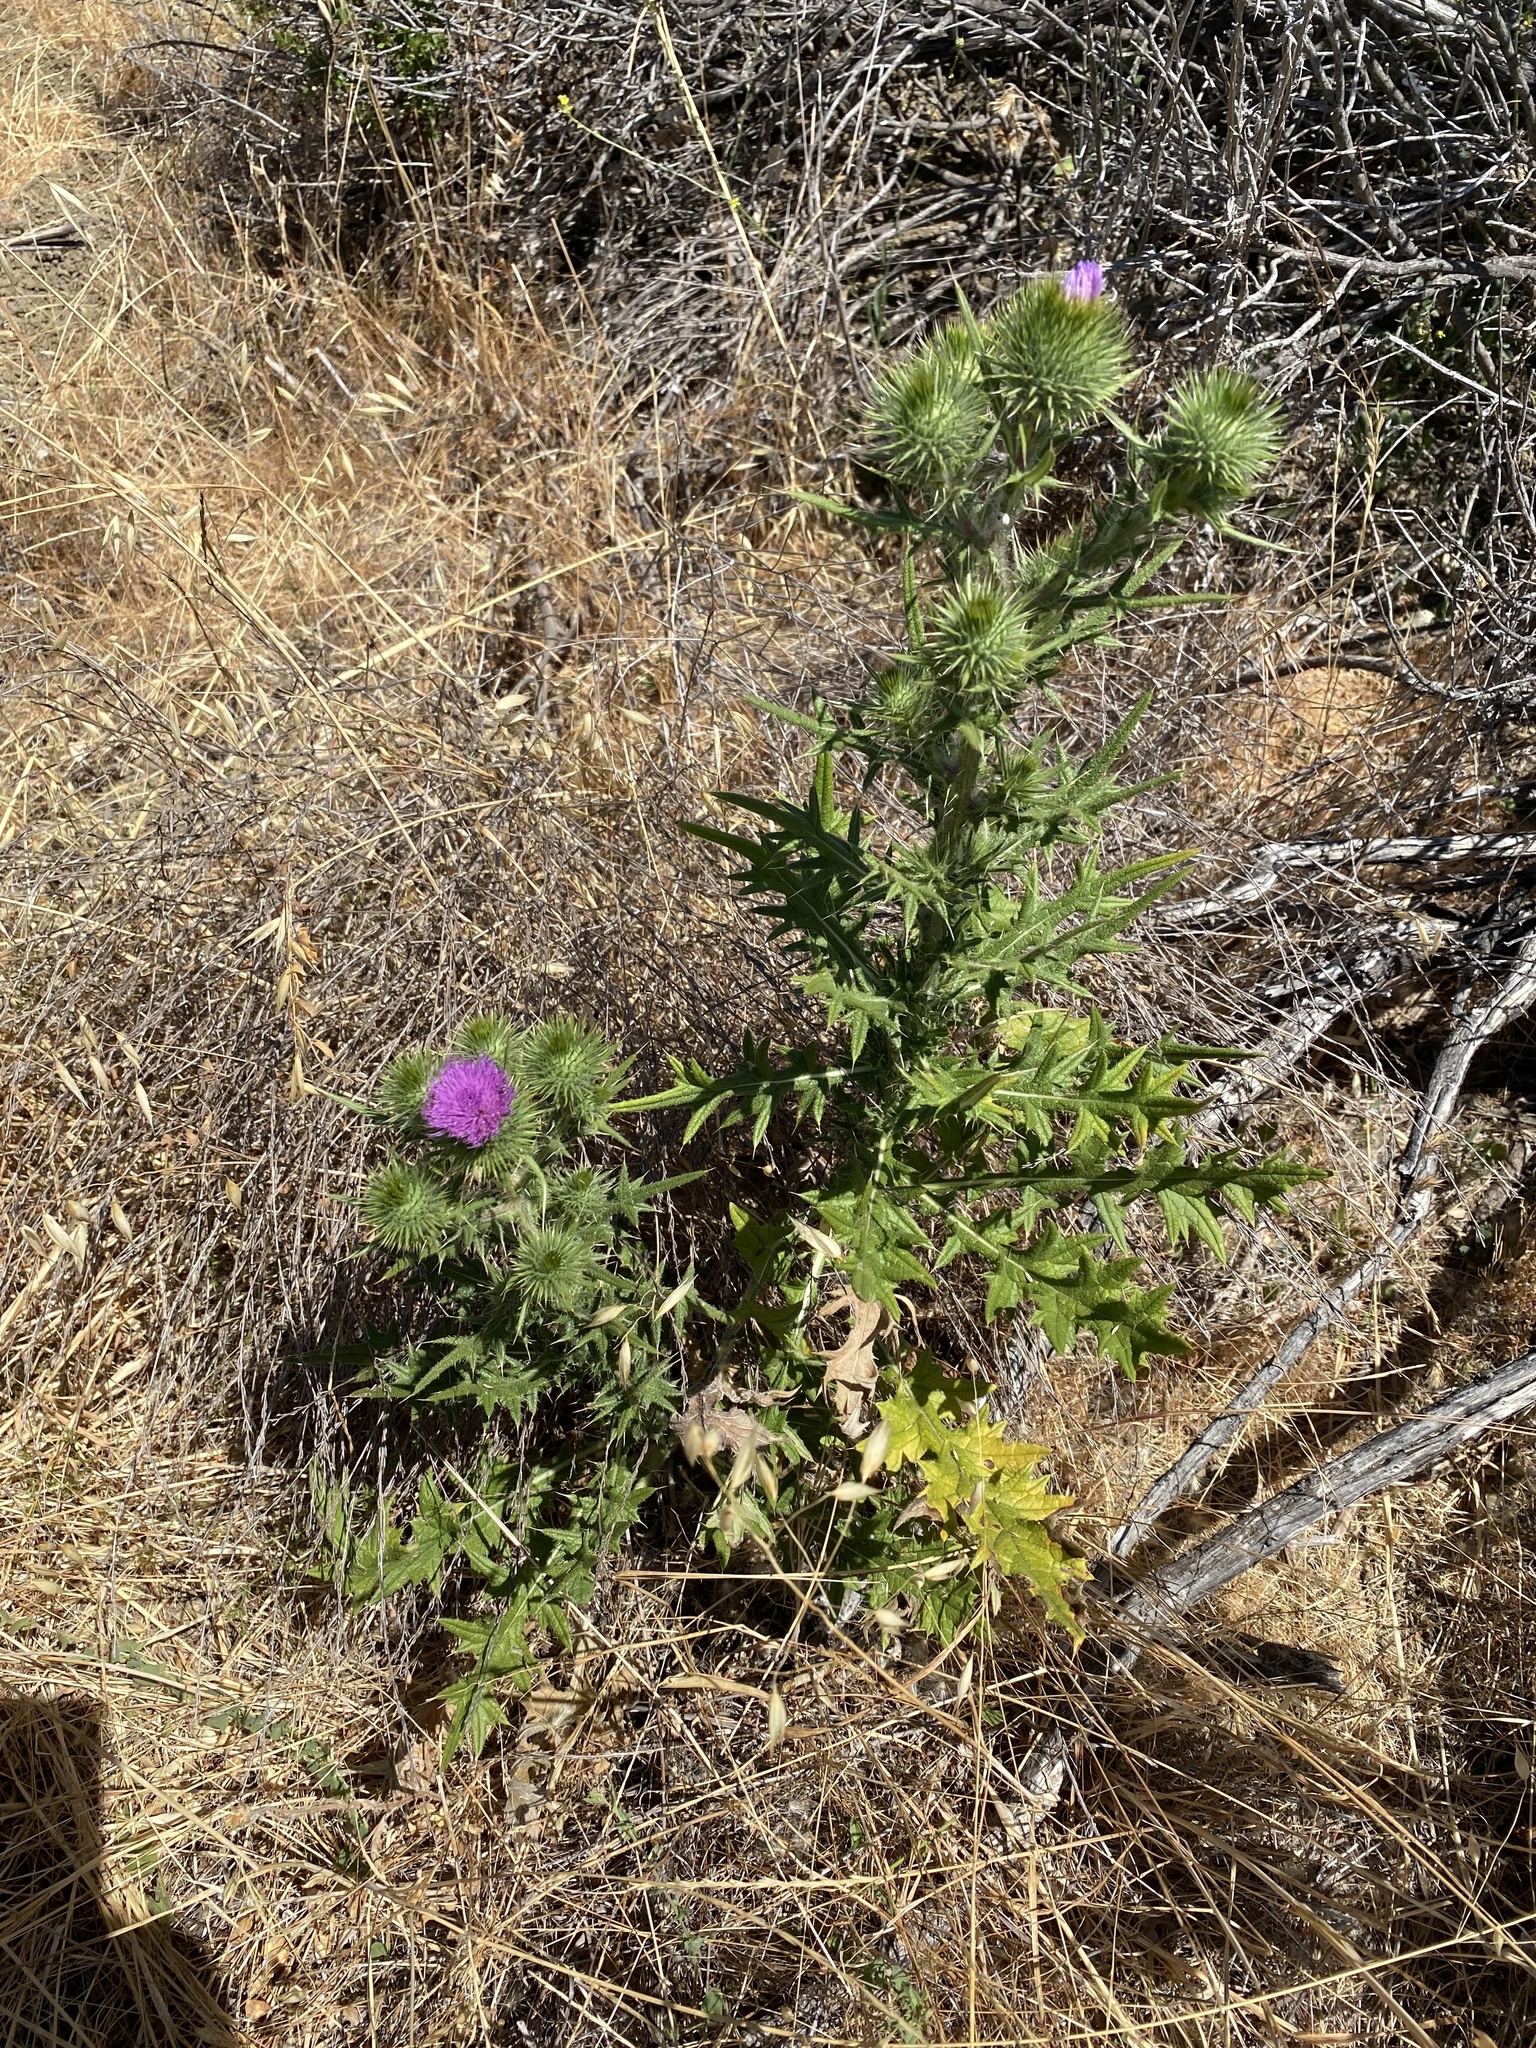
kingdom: Plantae
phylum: Tracheophyta
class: Magnoliopsida
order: Asterales
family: Asteraceae
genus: Cirsium
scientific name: Cirsium vulgare
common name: Bull thistle
